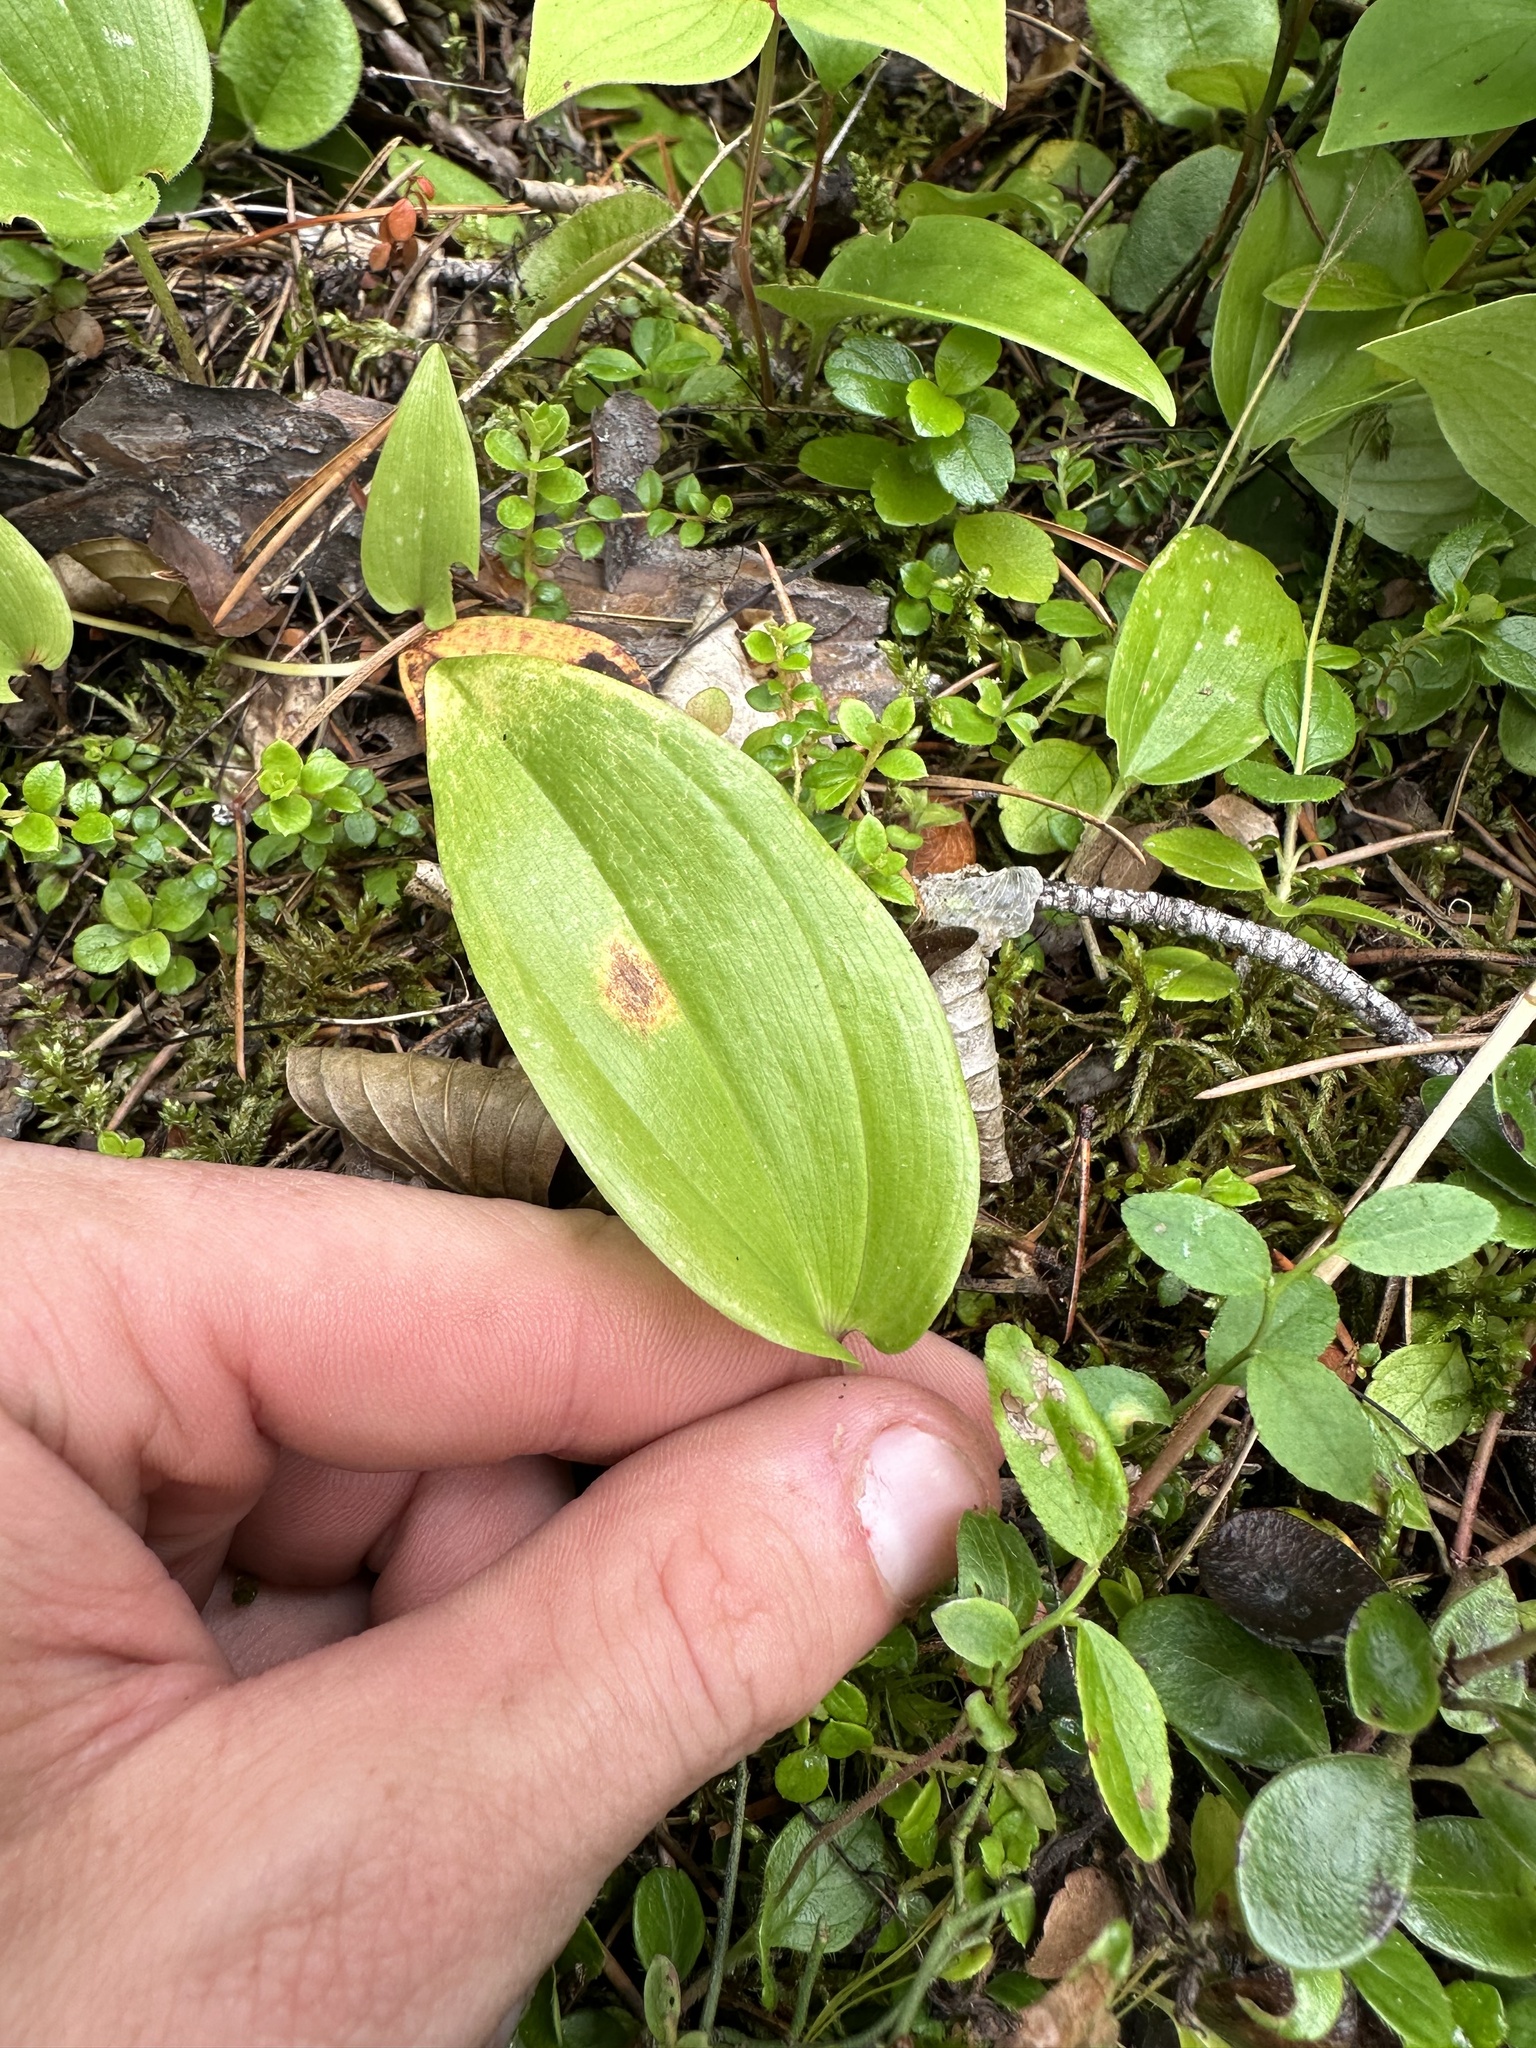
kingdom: Plantae
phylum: Tracheophyta
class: Liliopsida
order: Asparagales
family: Asparagaceae
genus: Maianthemum
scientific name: Maianthemum canadense
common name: False lily-of-the-valley
